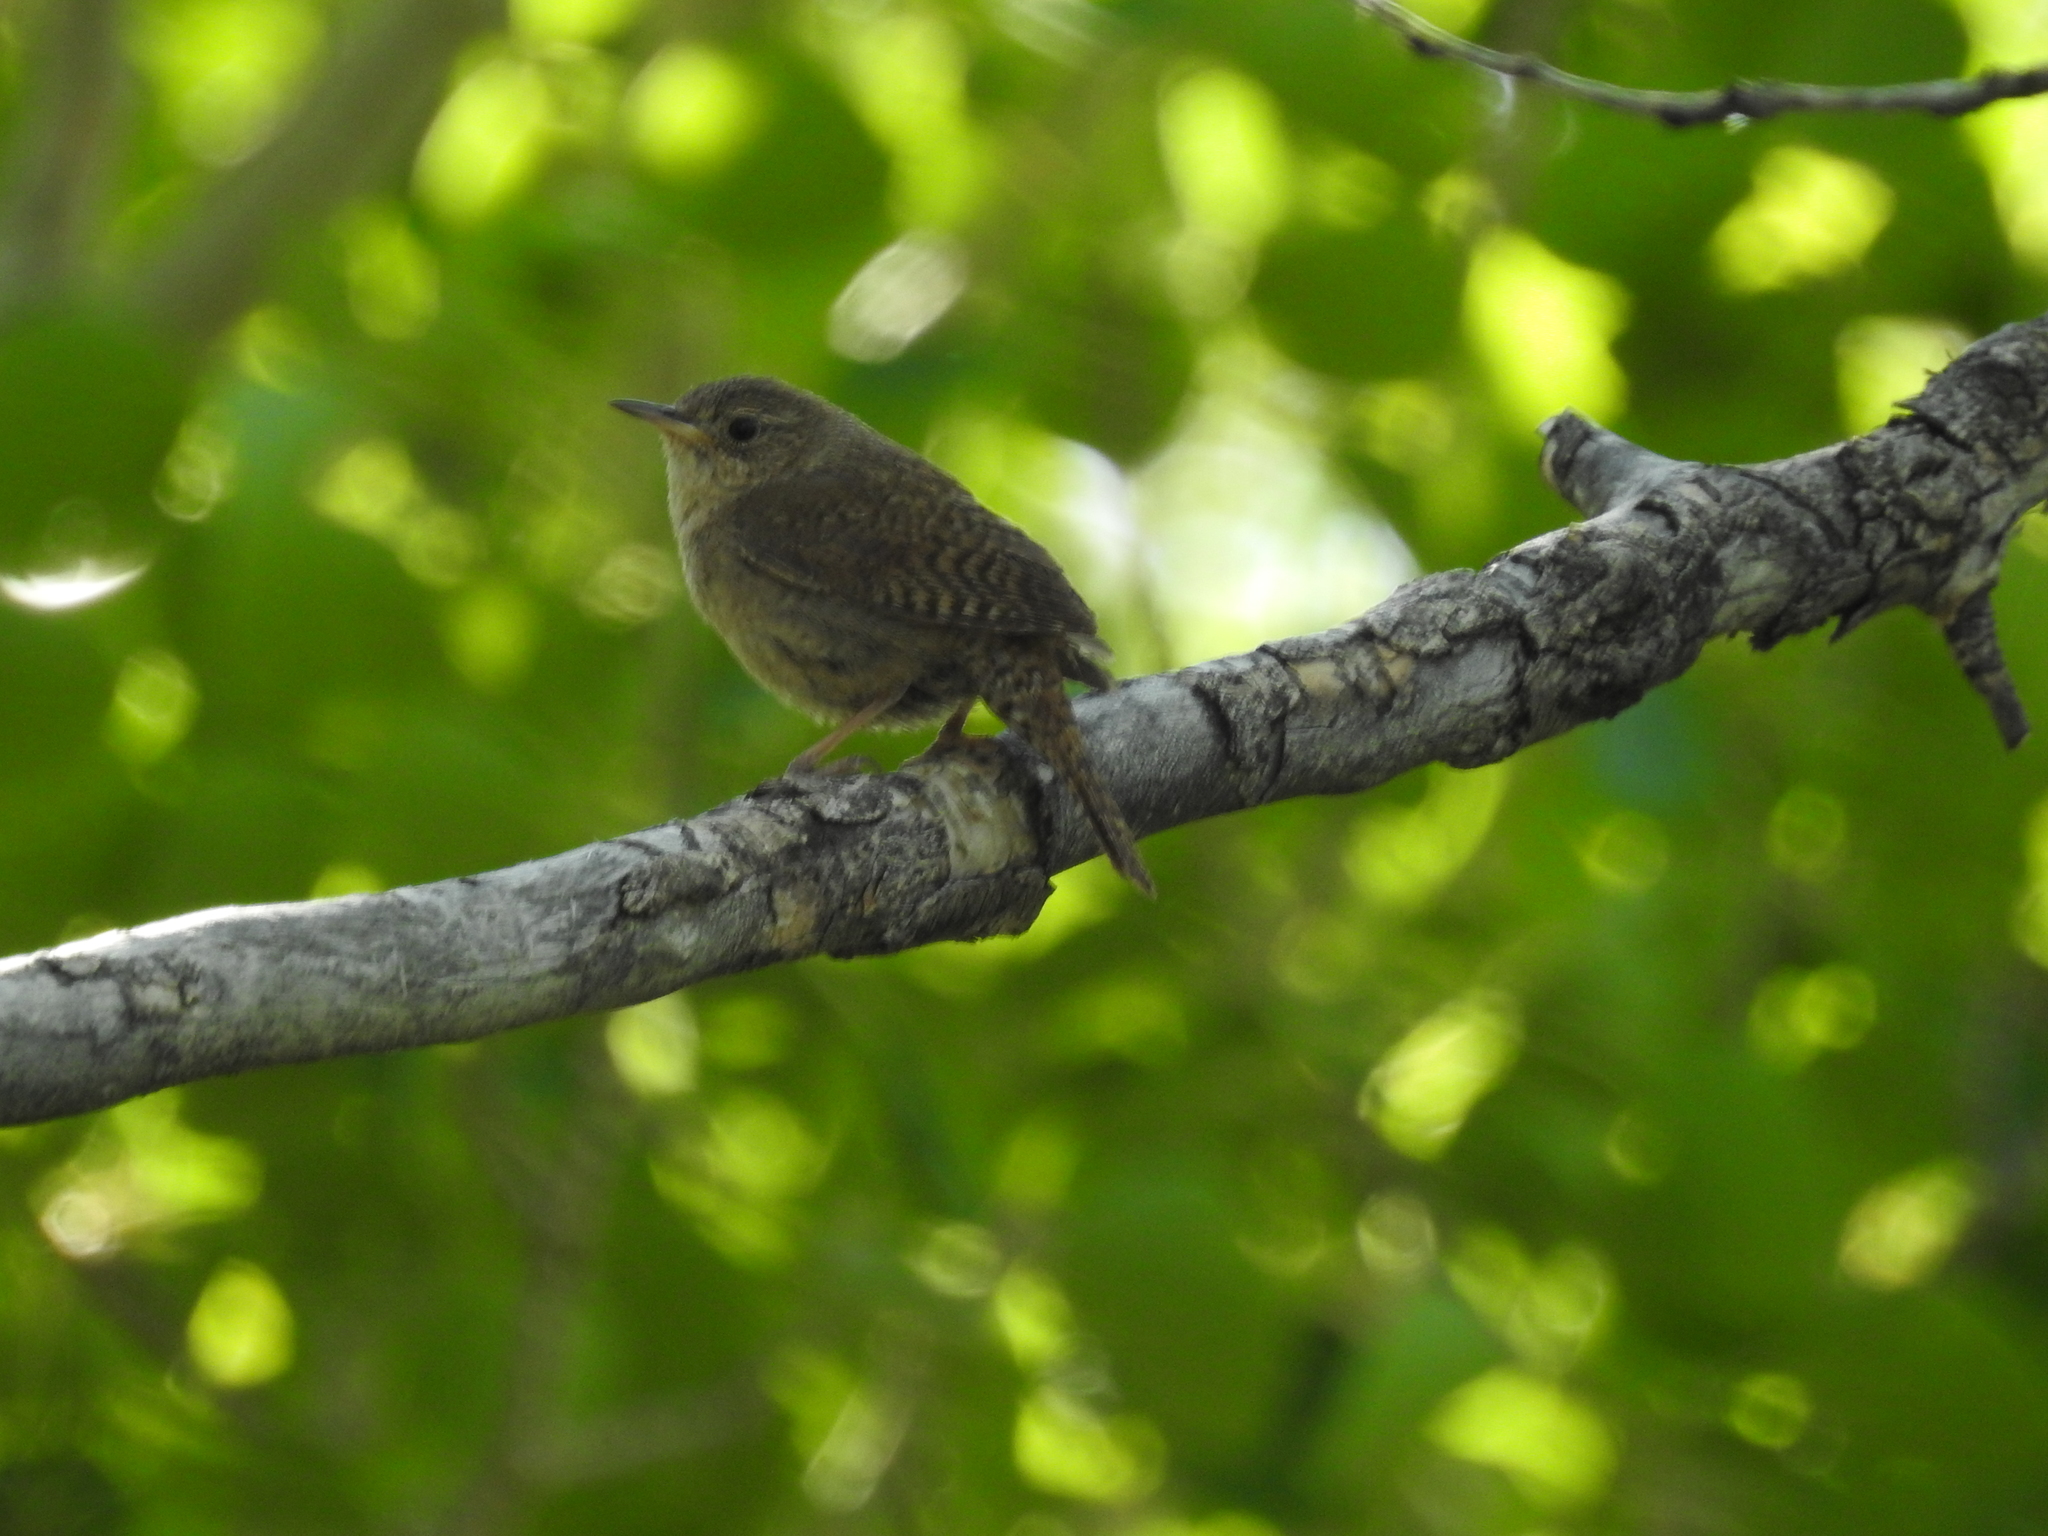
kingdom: Animalia
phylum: Chordata
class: Aves
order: Passeriformes
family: Troglodytidae
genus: Troglodytes
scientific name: Troglodytes aedon
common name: House wren
